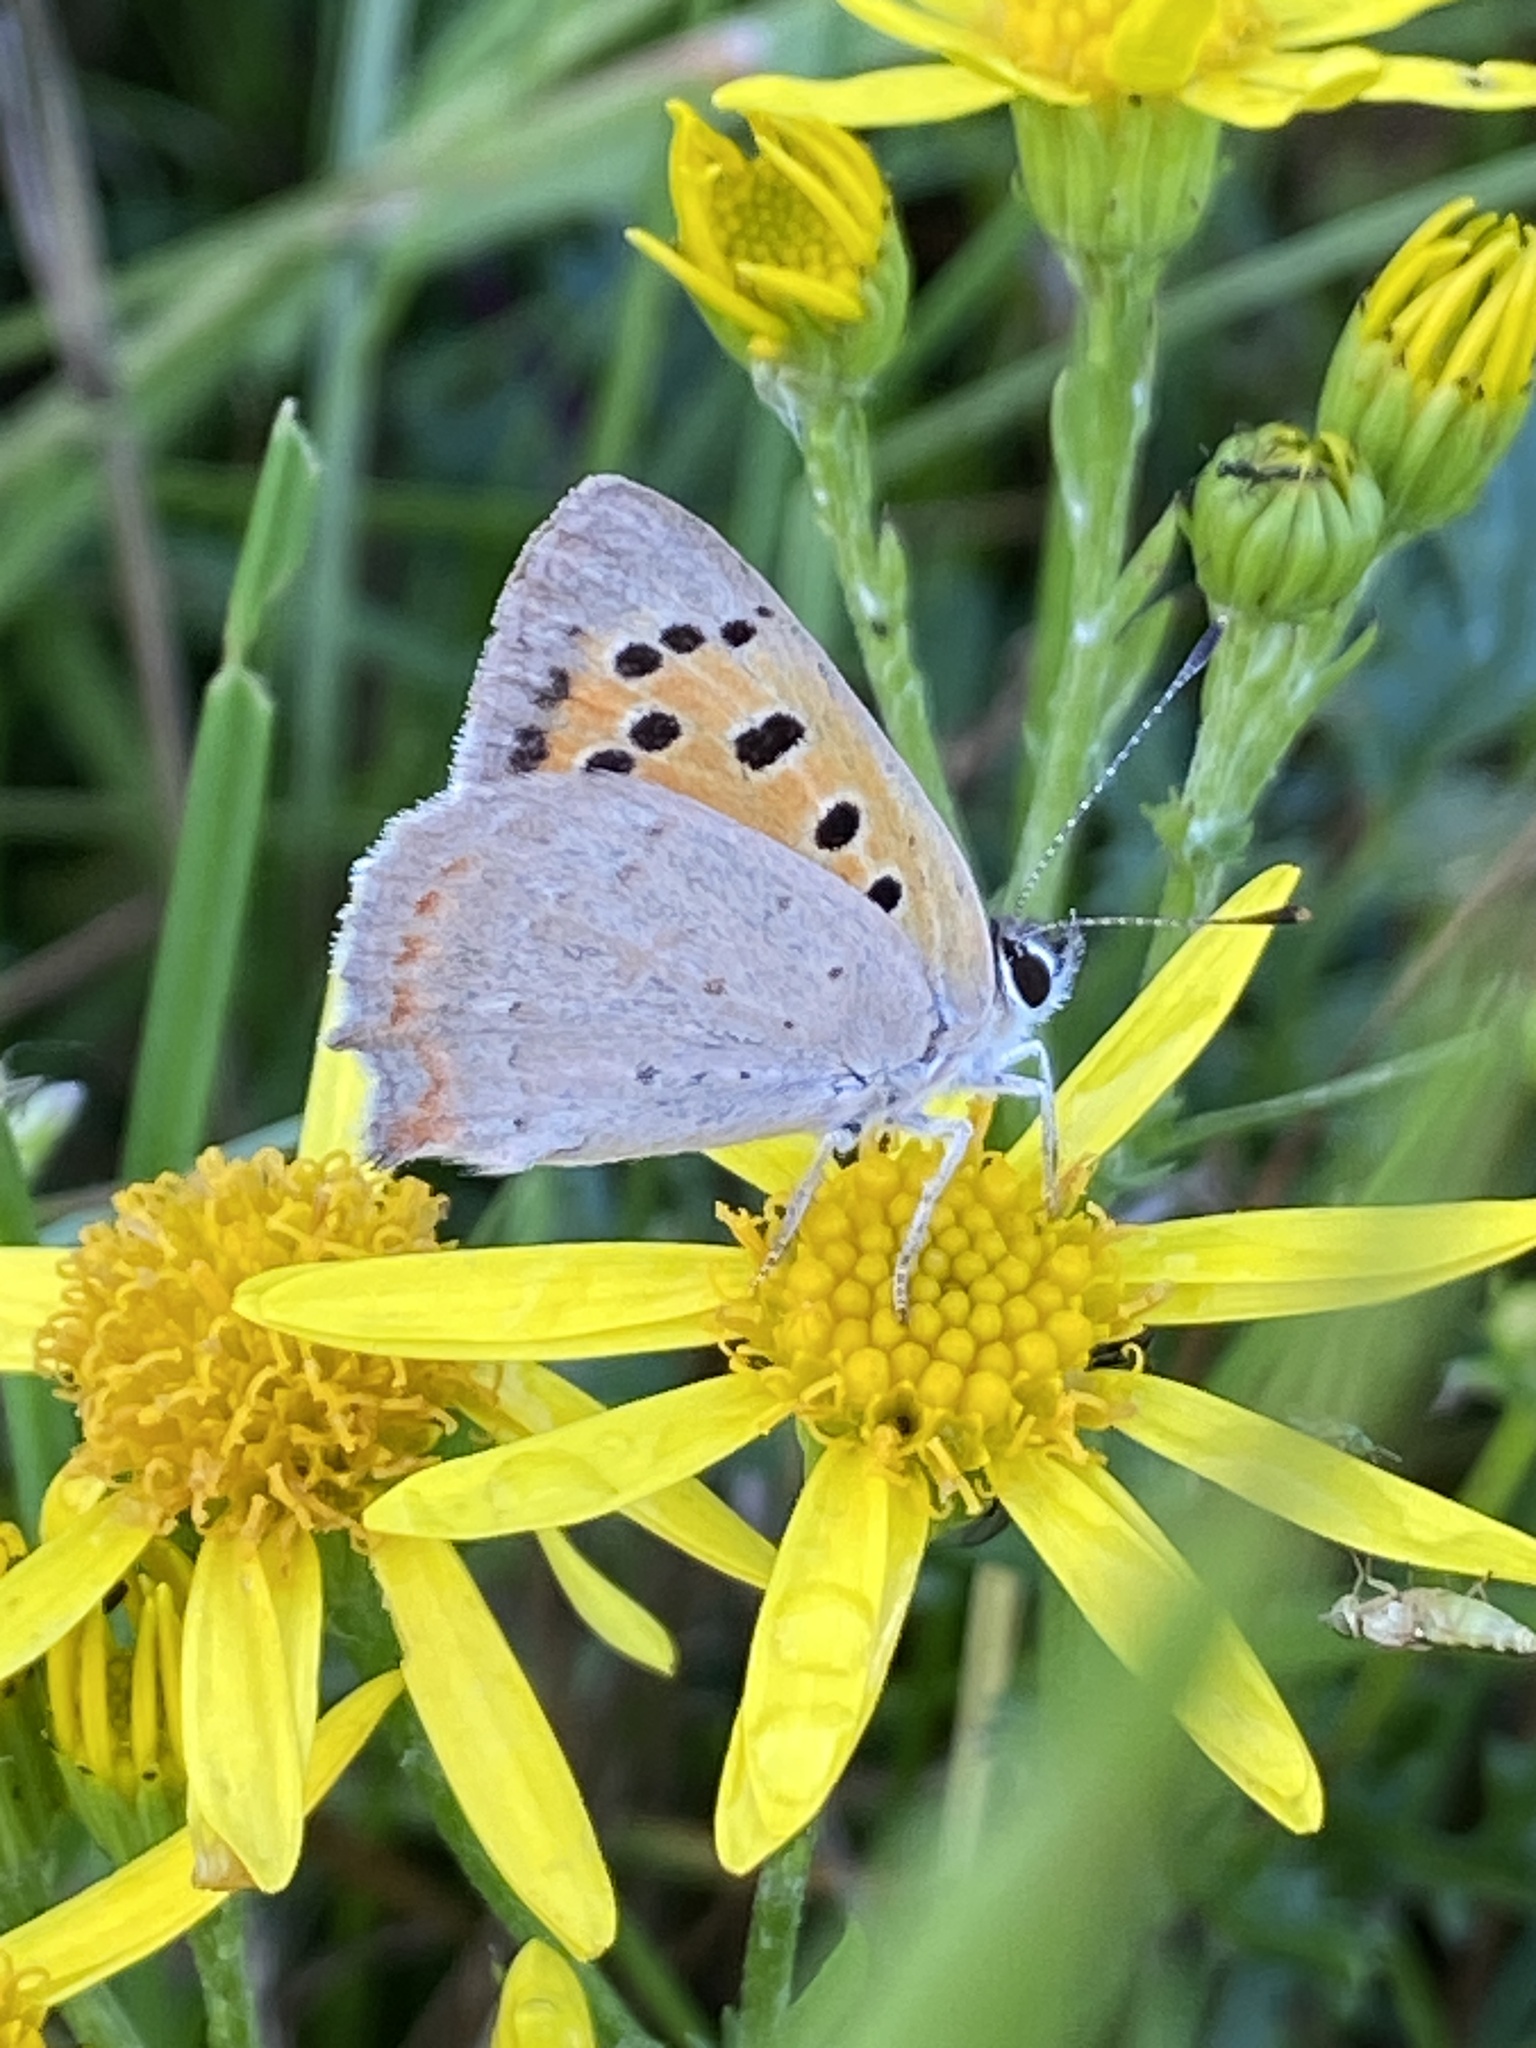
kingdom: Animalia
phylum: Arthropoda
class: Insecta
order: Lepidoptera
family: Lycaenidae
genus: Lycaena
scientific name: Lycaena phlaeas
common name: Small copper
